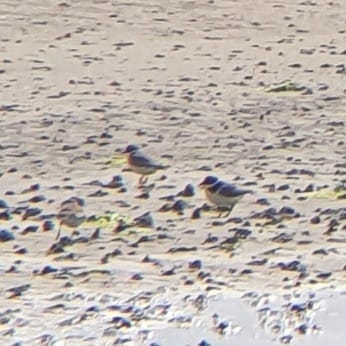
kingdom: Animalia
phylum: Chordata
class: Aves
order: Charadriiformes
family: Charadriidae
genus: Charadrius
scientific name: Charadrius hiaticula
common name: Common ringed plover
